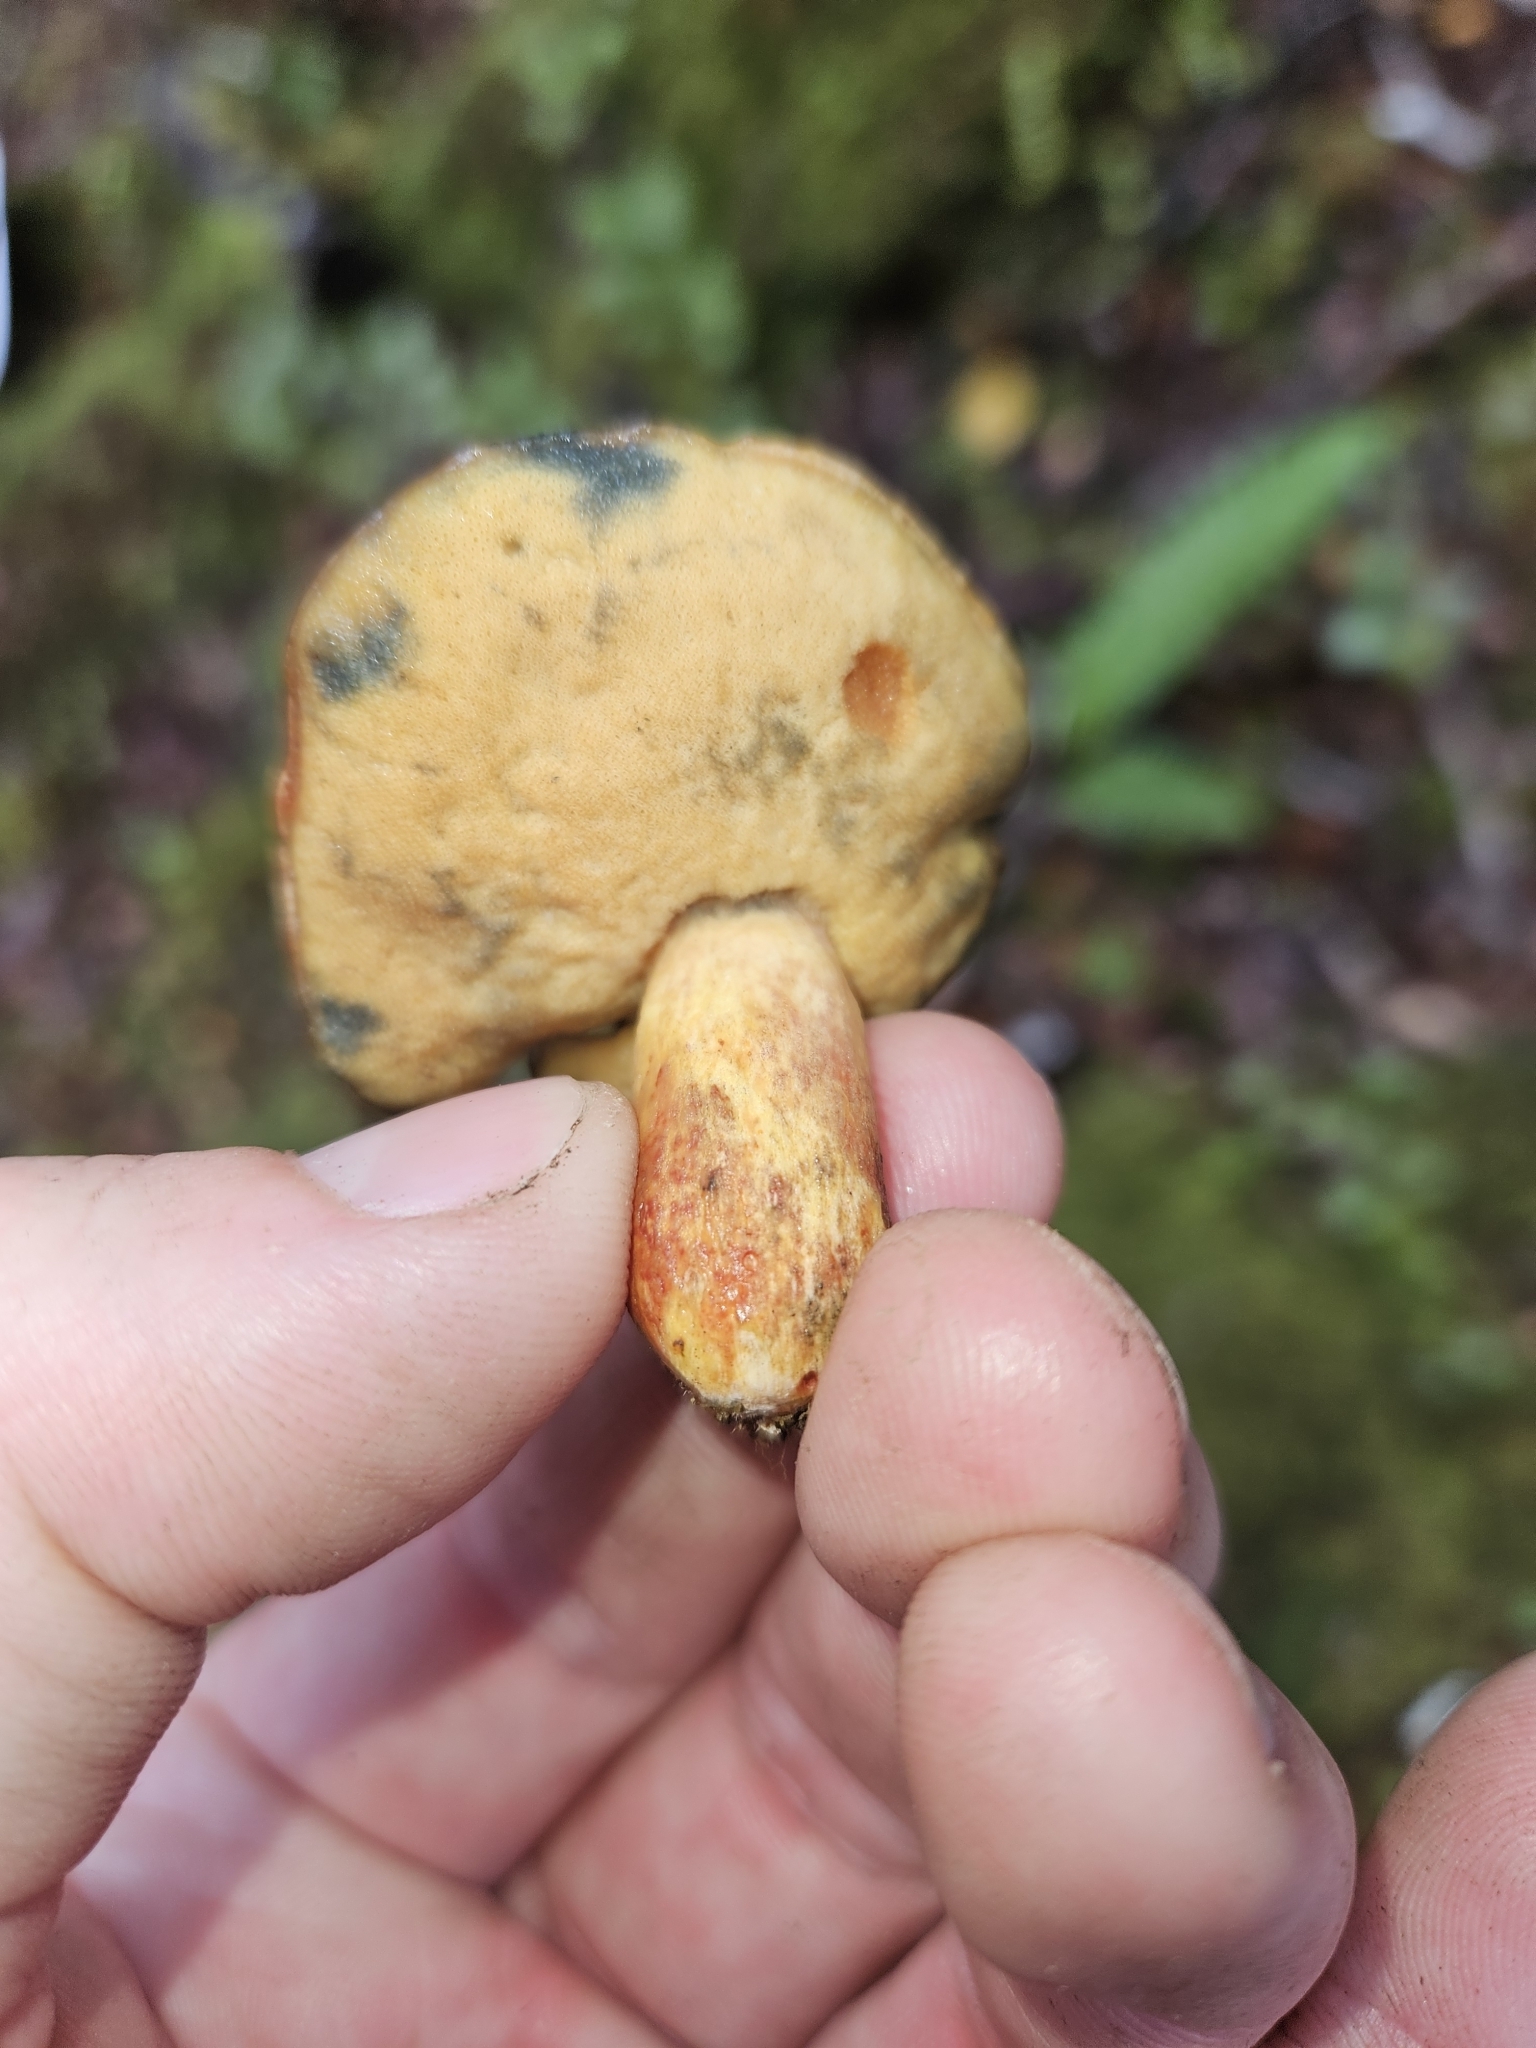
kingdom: Fungi
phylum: Basidiomycota
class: Agaricomycetes
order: Boletales
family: Boletaceae
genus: Xerocomus
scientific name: Xerocomus leptospermi
